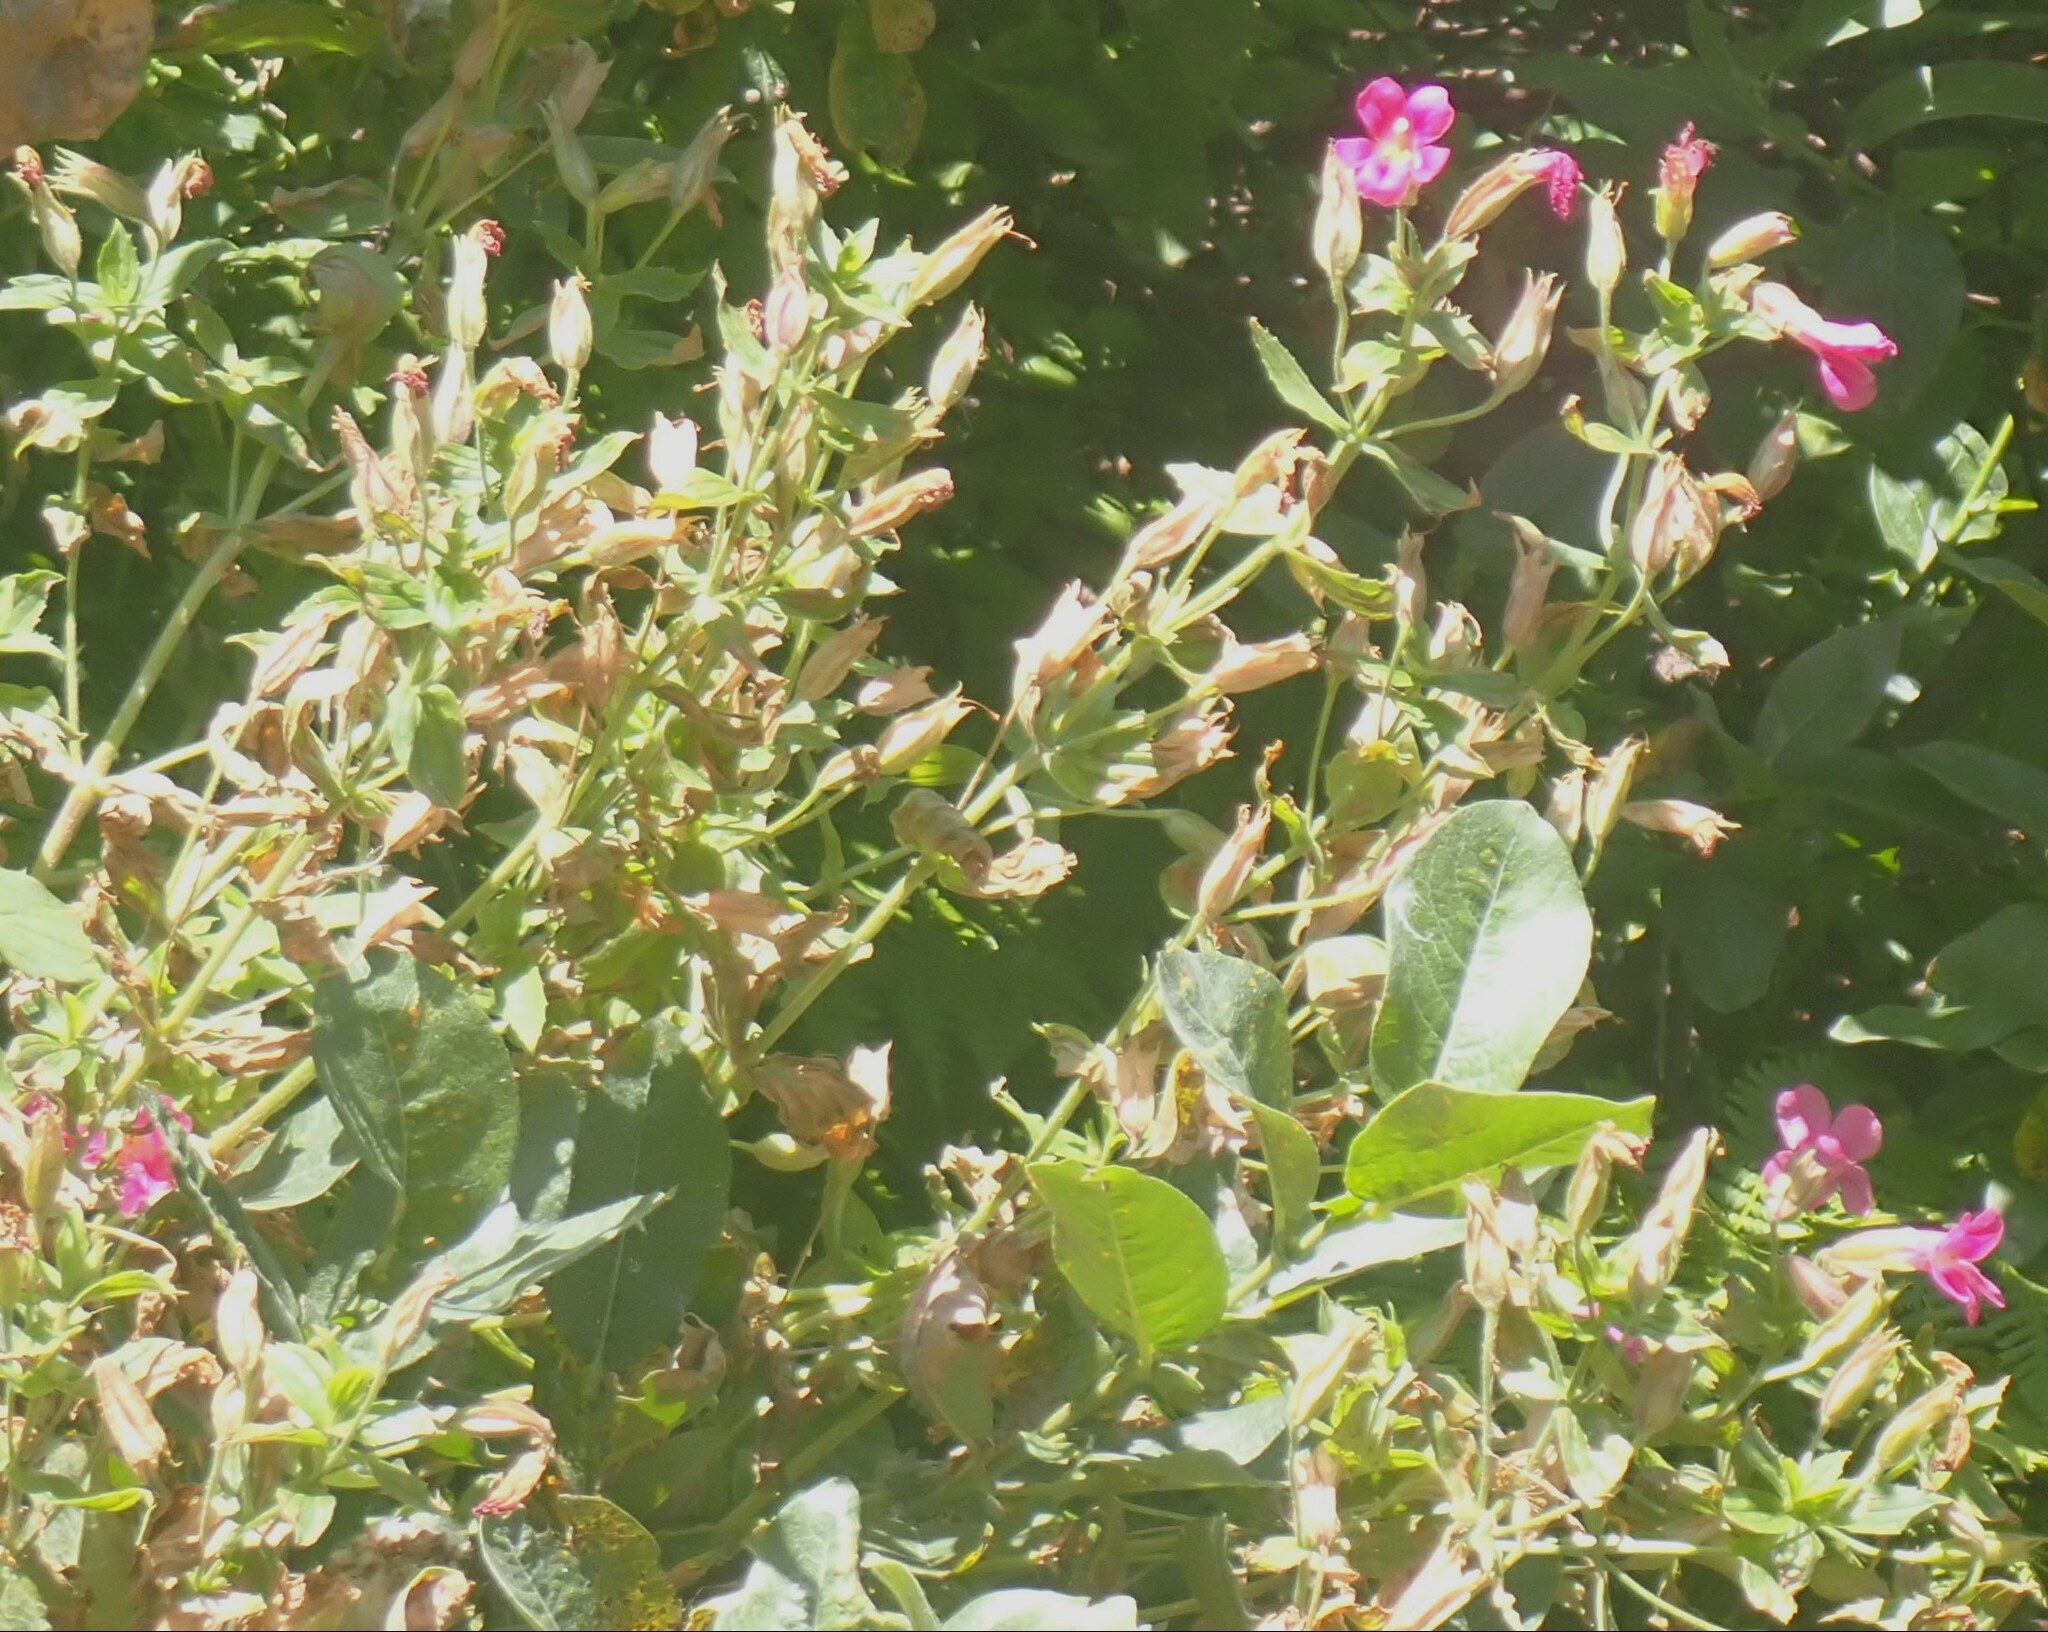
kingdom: Plantae
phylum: Tracheophyta
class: Magnoliopsida
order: Lamiales
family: Phrymaceae
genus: Erythranthe
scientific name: Erythranthe lewisii
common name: Lewis's monkey-flower
